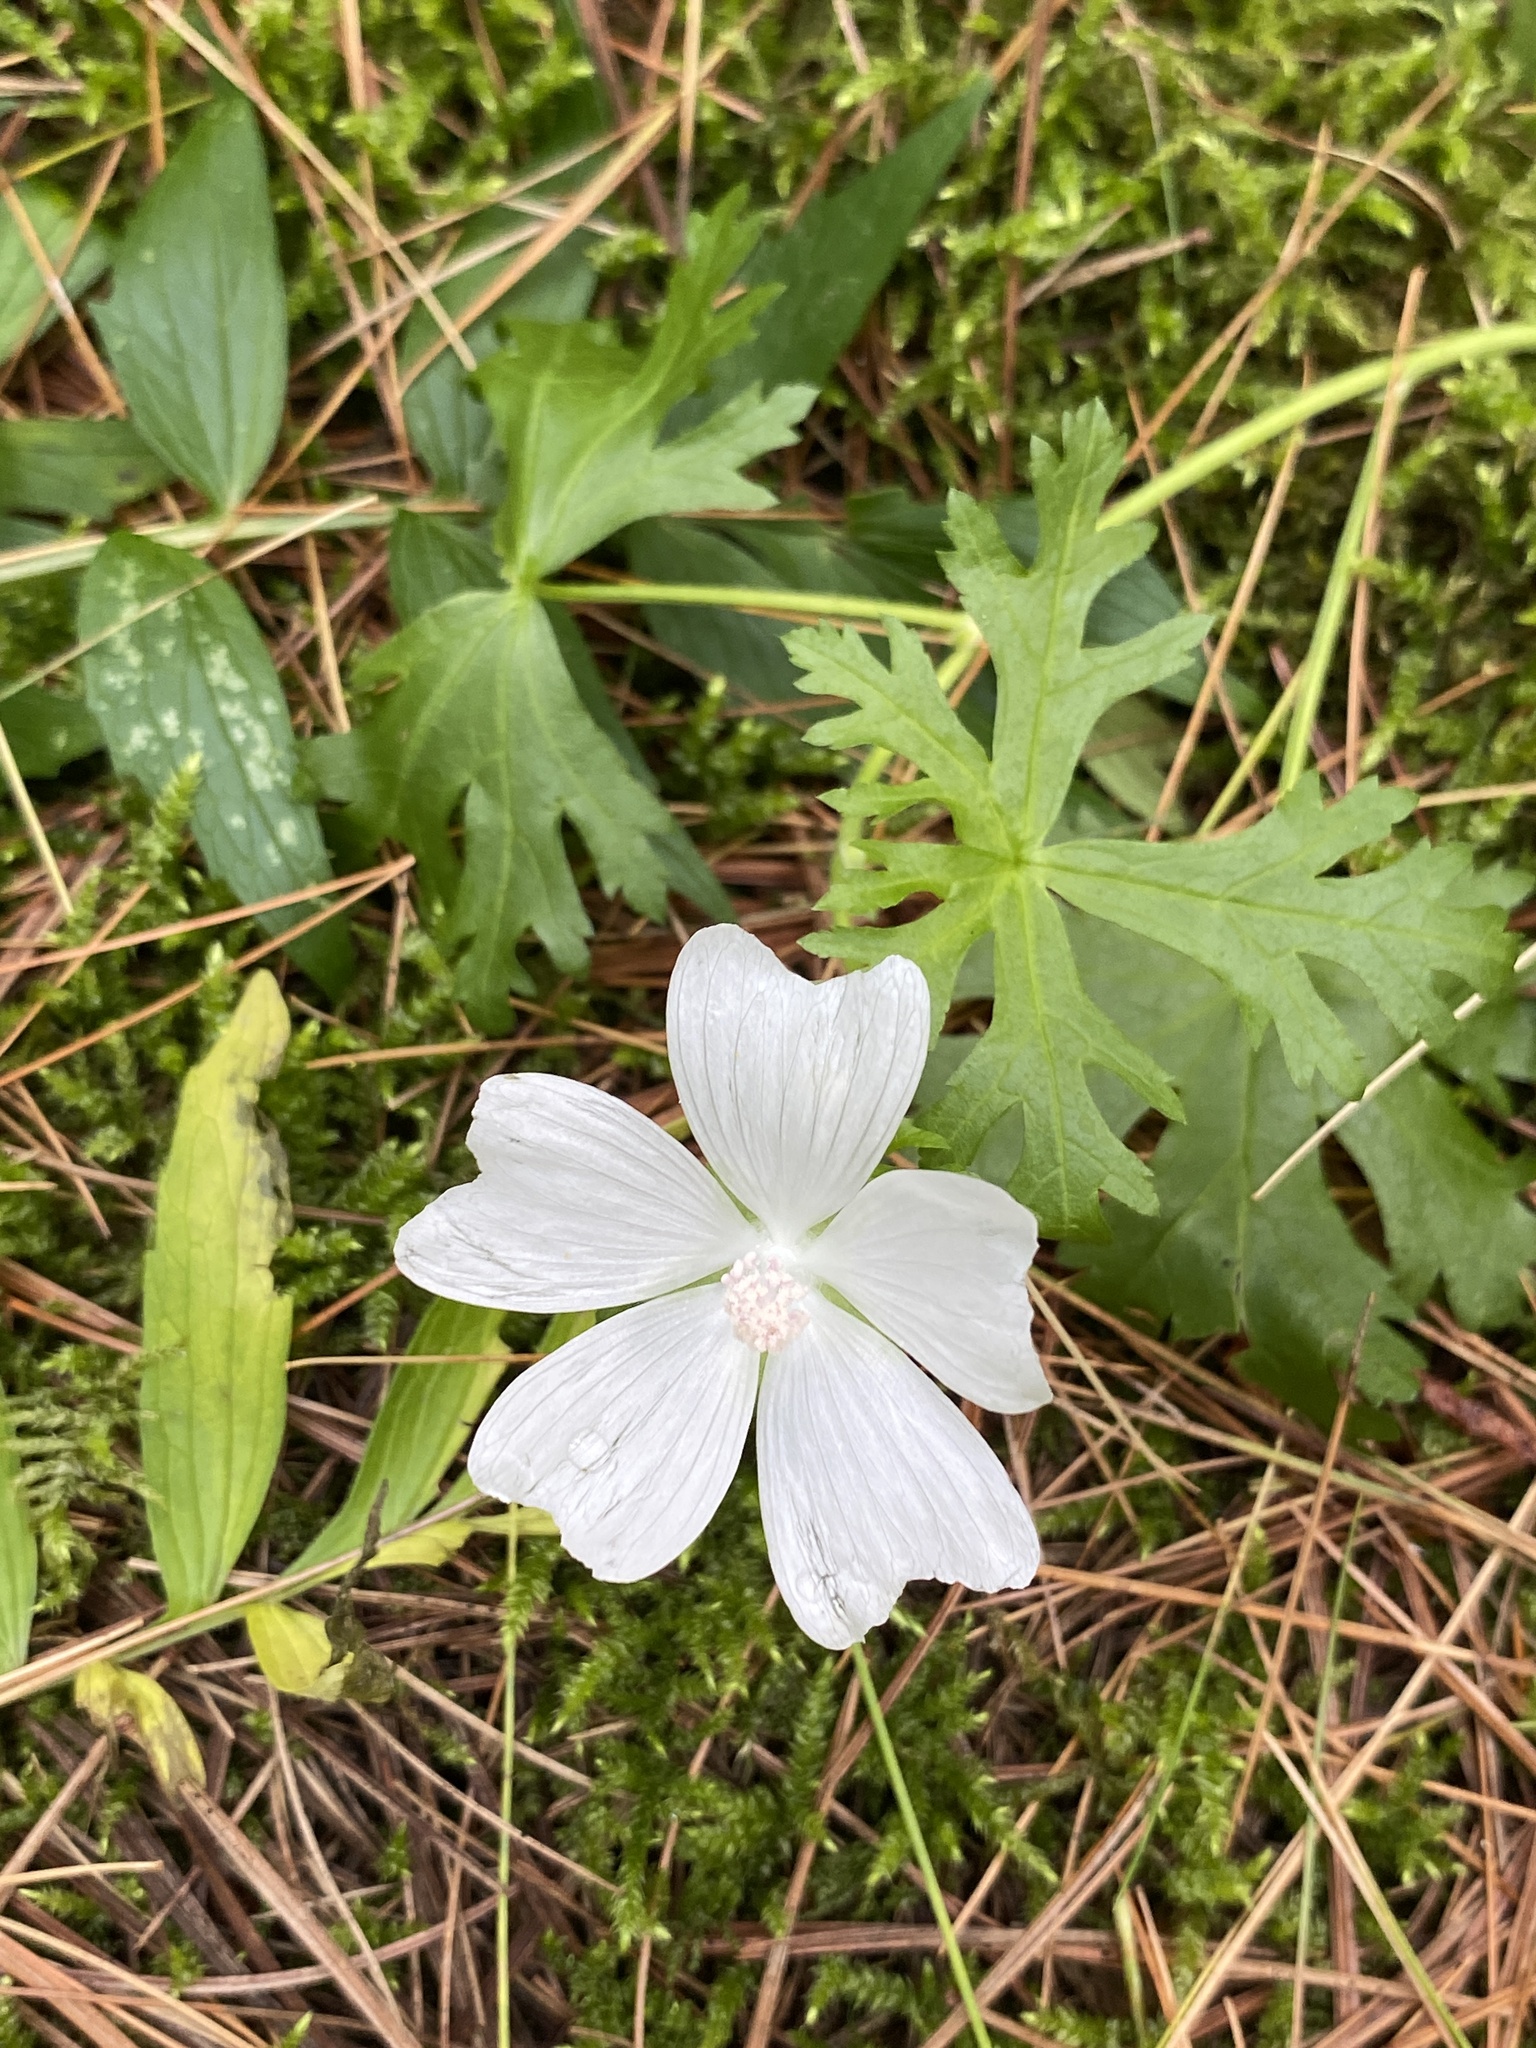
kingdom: Plantae
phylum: Tracheophyta
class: Magnoliopsida
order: Malvales
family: Malvaceae
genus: Malva
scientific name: Malva moschata
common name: Musk mallow
